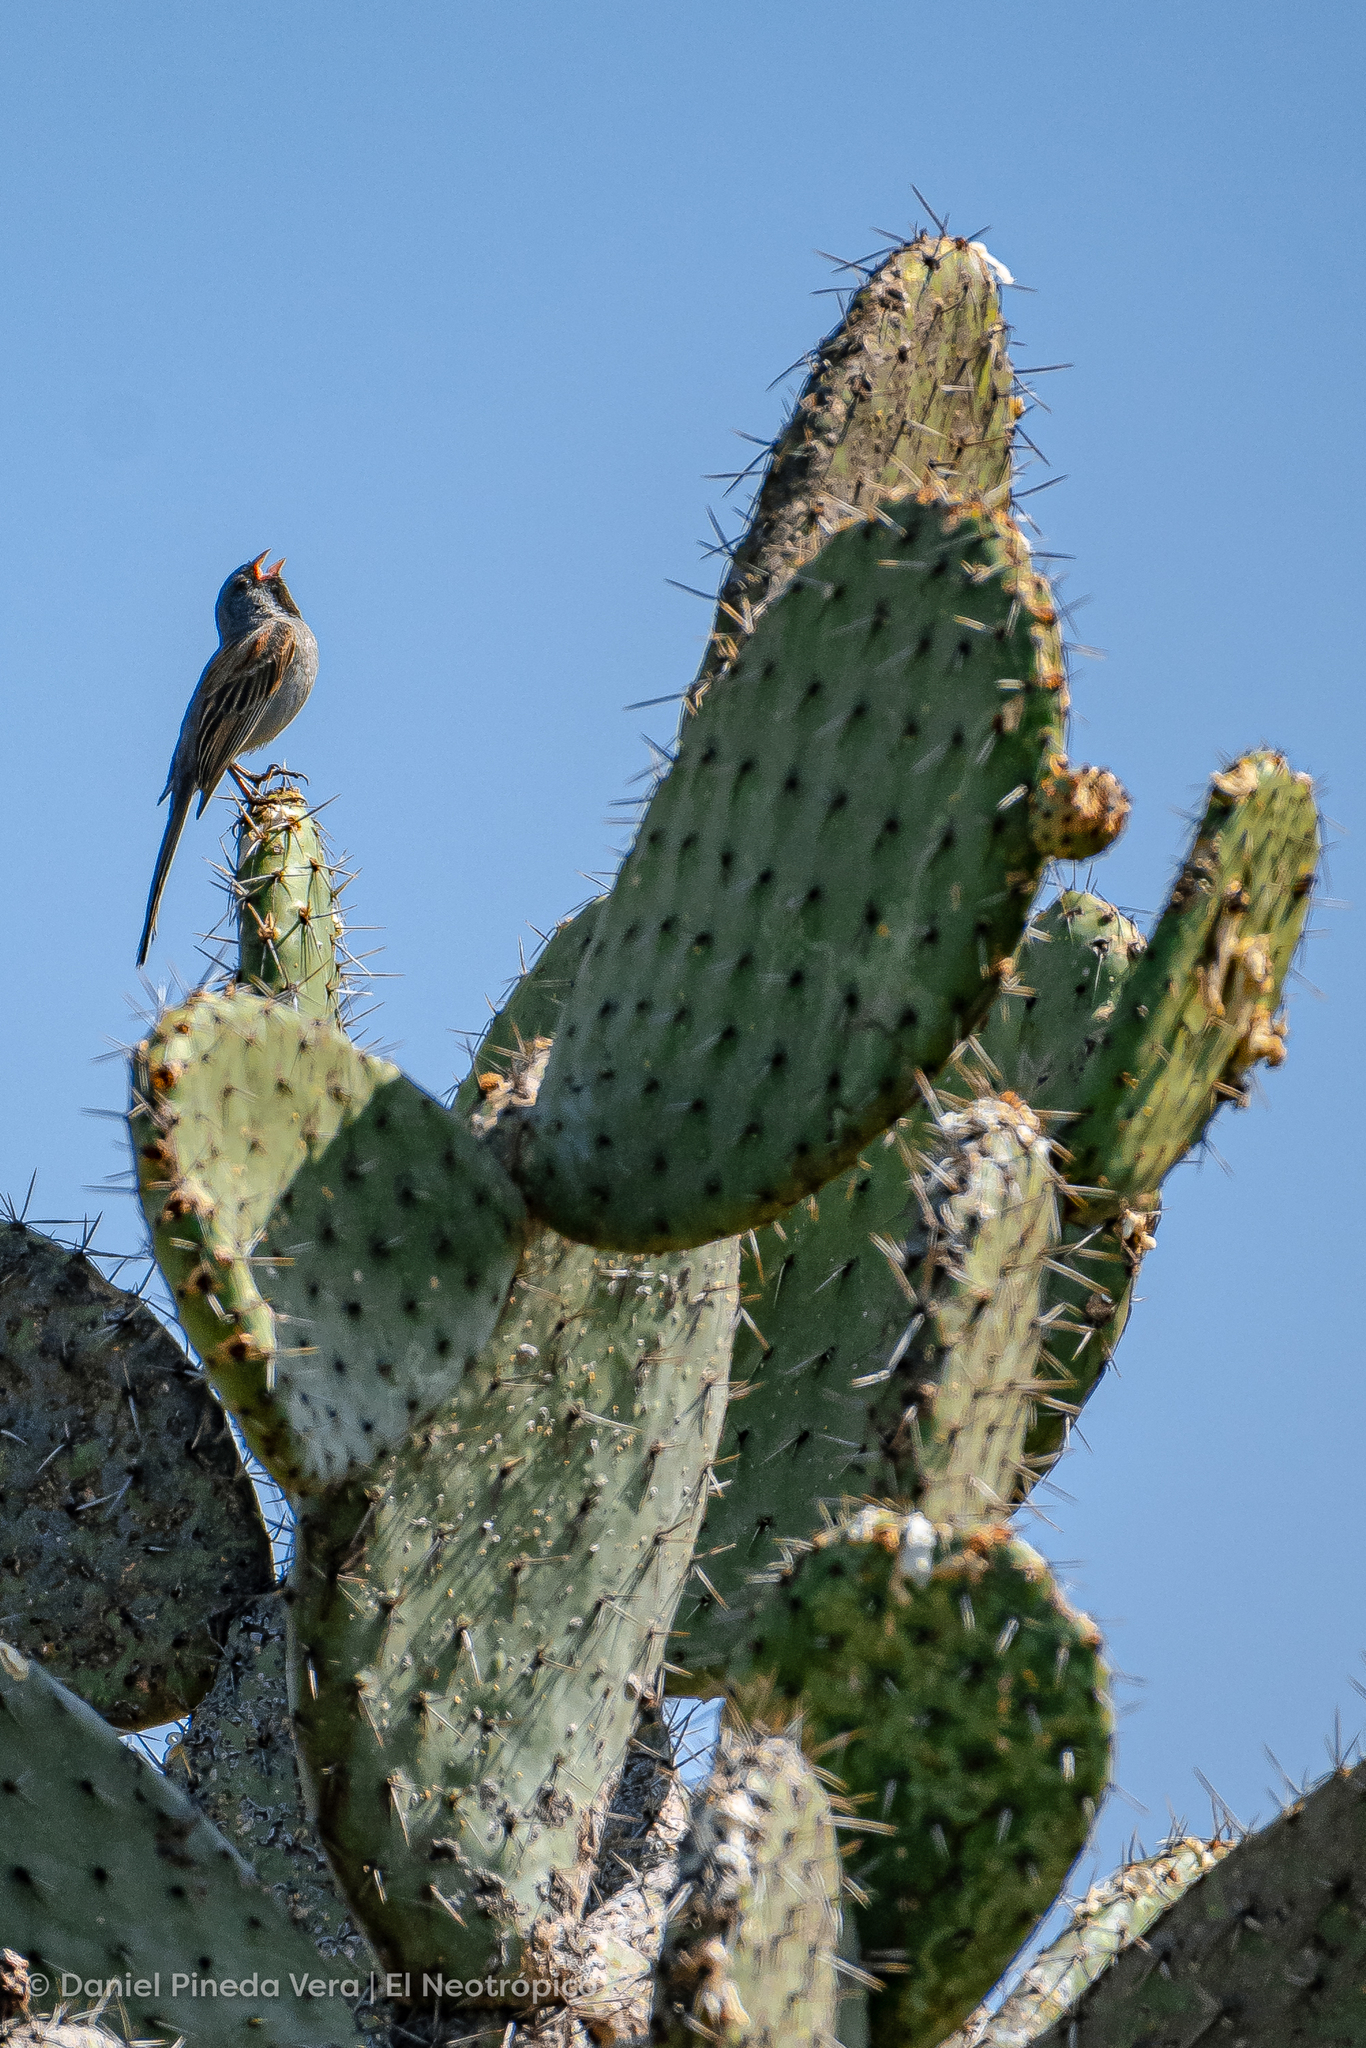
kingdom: Animalia
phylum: Chordata
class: Aves
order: Passeriformes
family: Passerellidae
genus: Spizella
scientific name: Spizella atrogularis
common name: Black-chinned sparrow
